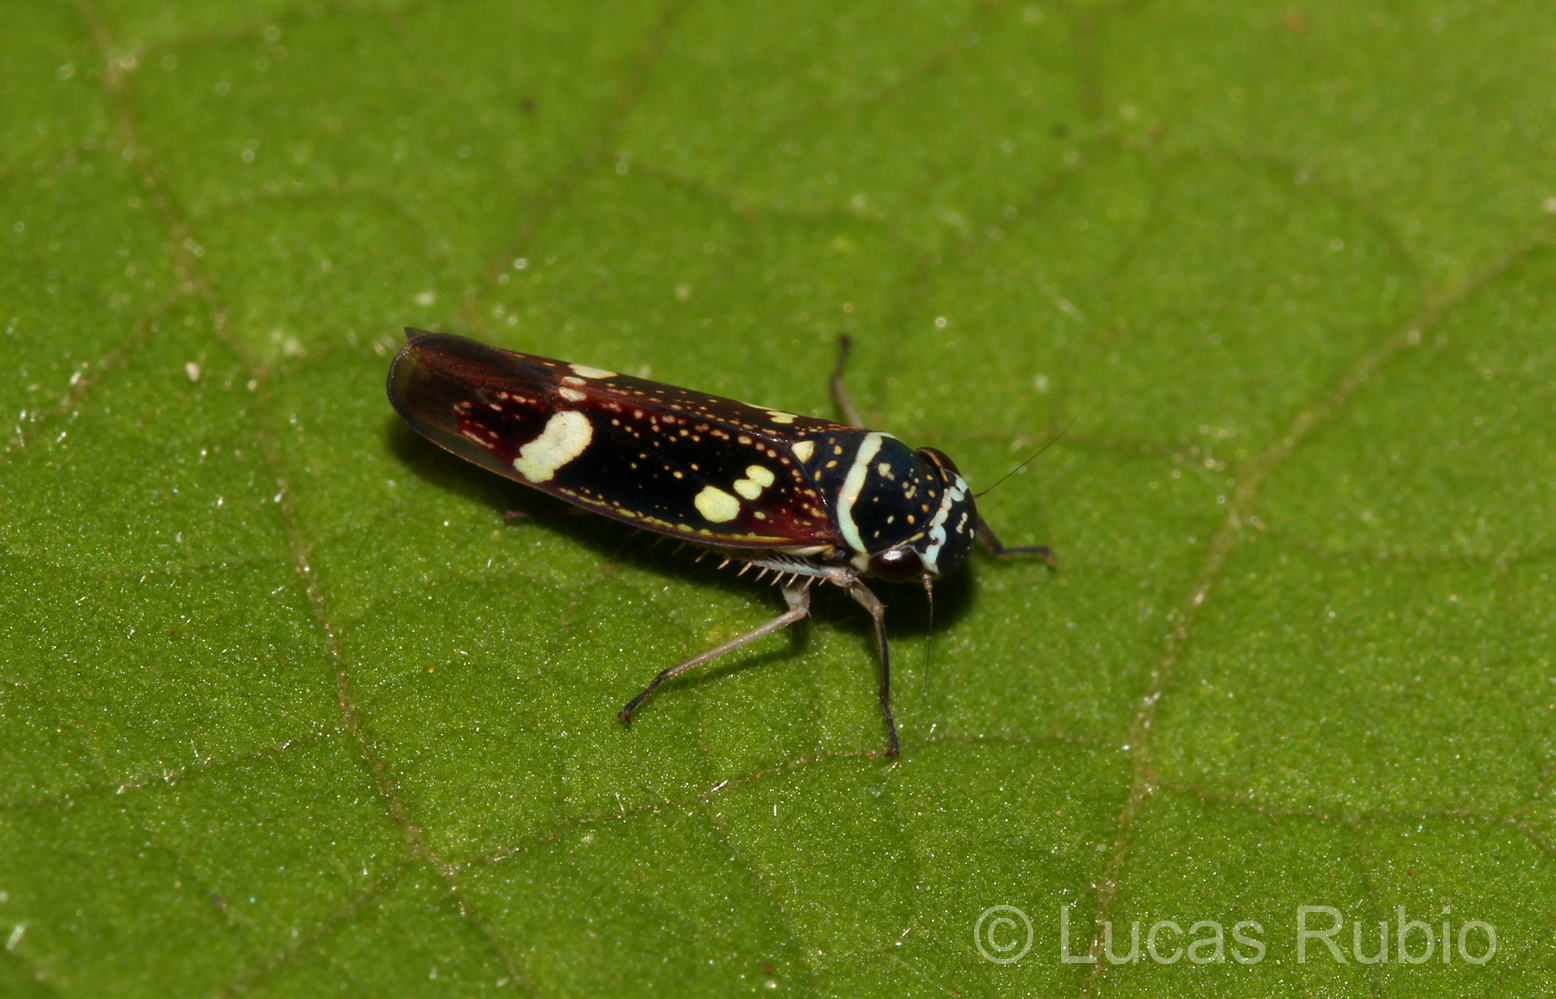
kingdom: Animalia
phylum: Arthropoda
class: Insecta
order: Hemiptera
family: Cicadellidae
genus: Macugonalia
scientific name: Macugonalia leucomelas
